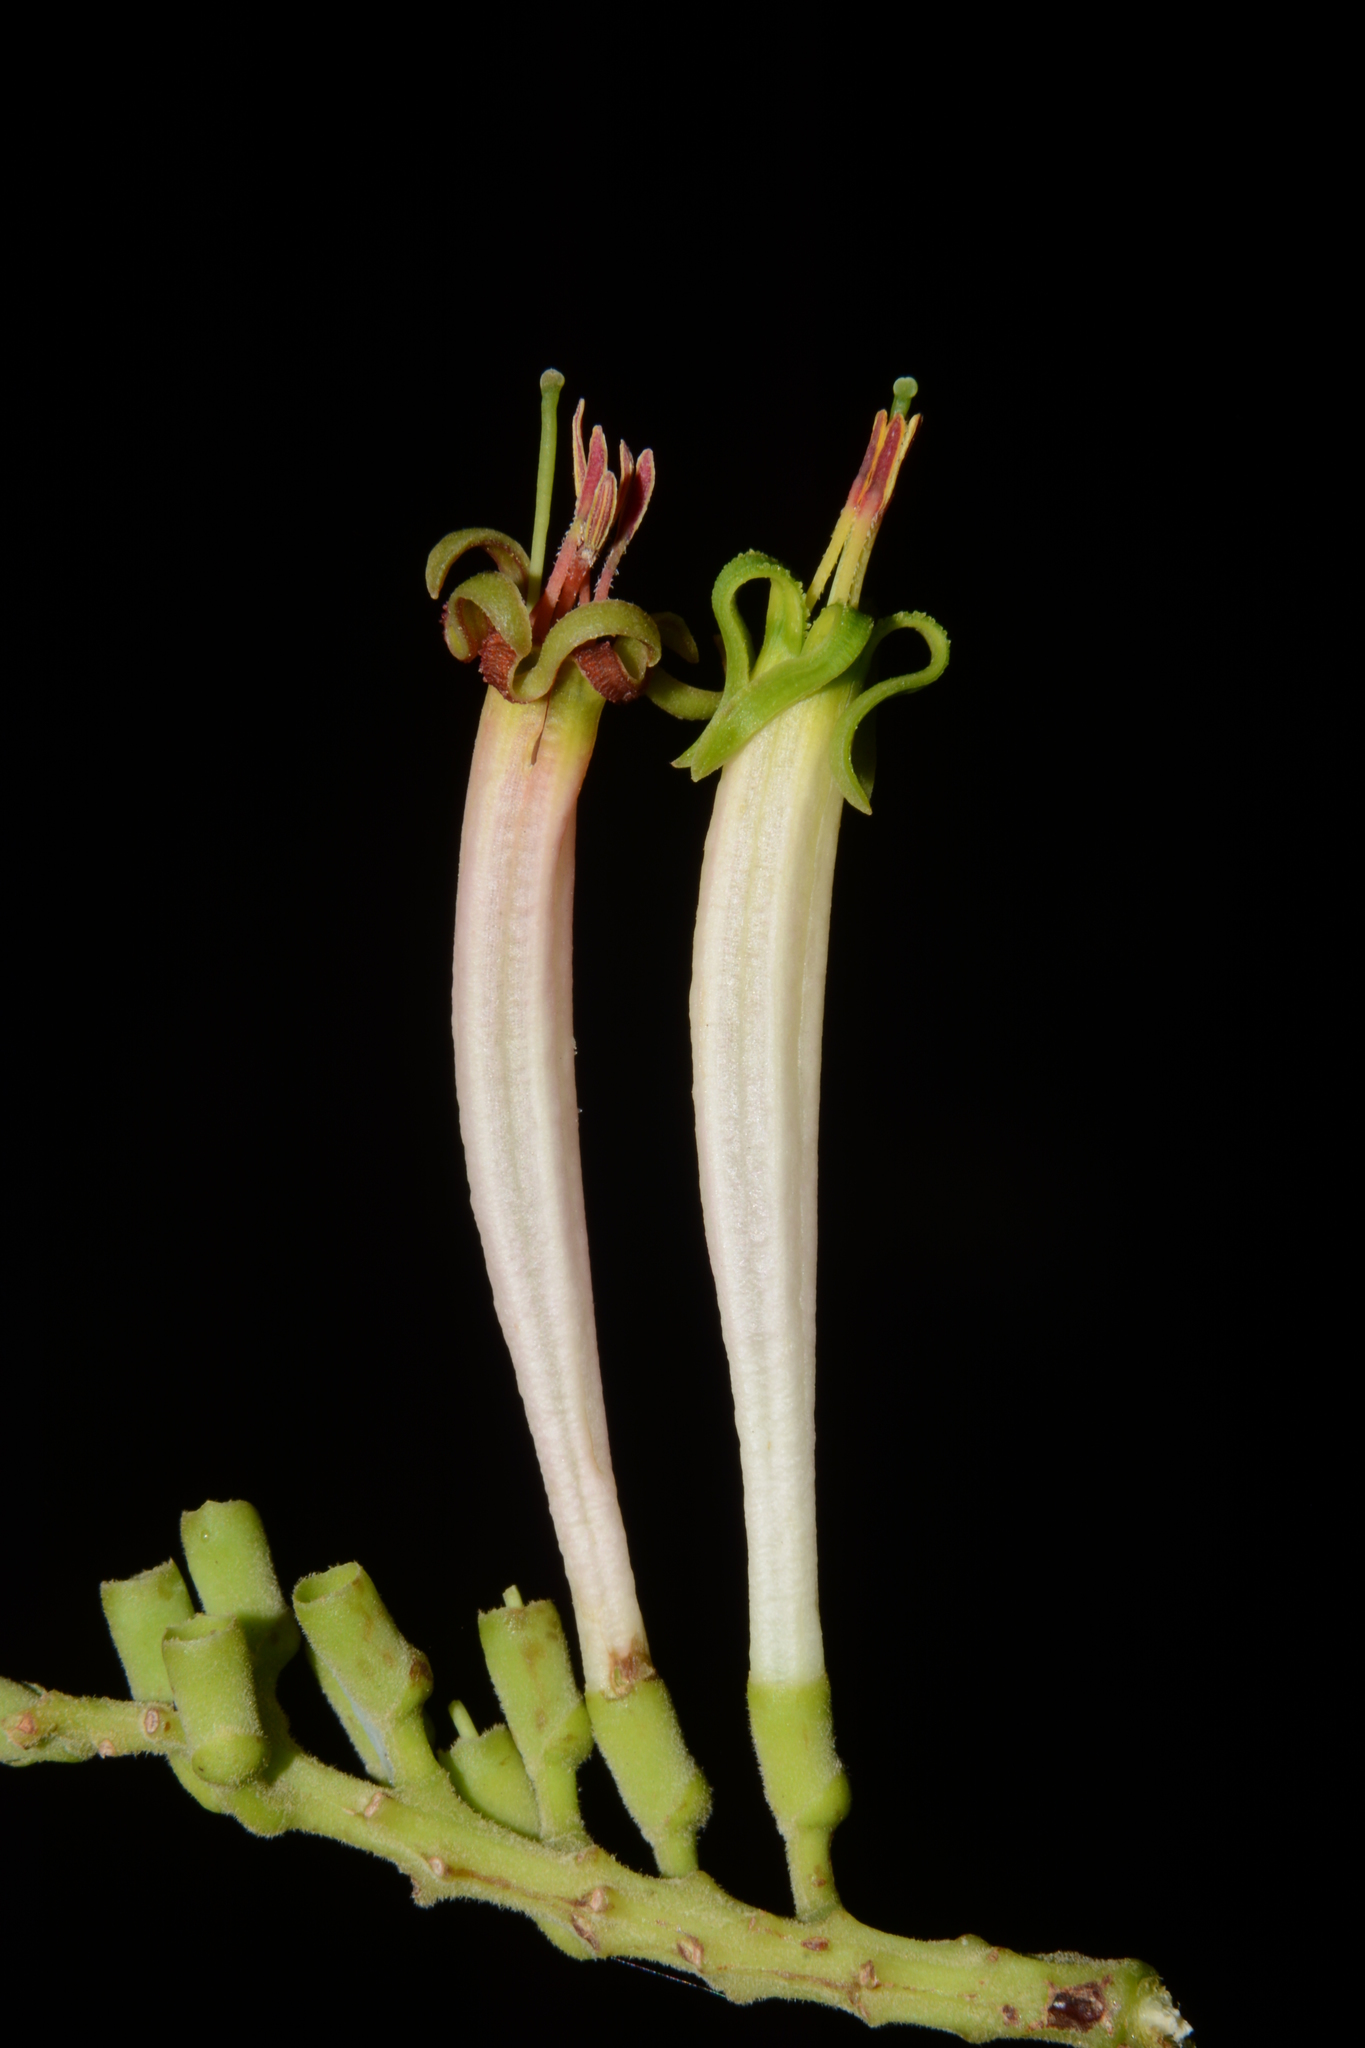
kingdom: Plantae
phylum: Tracheophyta
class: Magnoliopsida
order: Santalales
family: Loranthaceae
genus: Dendrophthoe
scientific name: Dendrophthoe falcata
